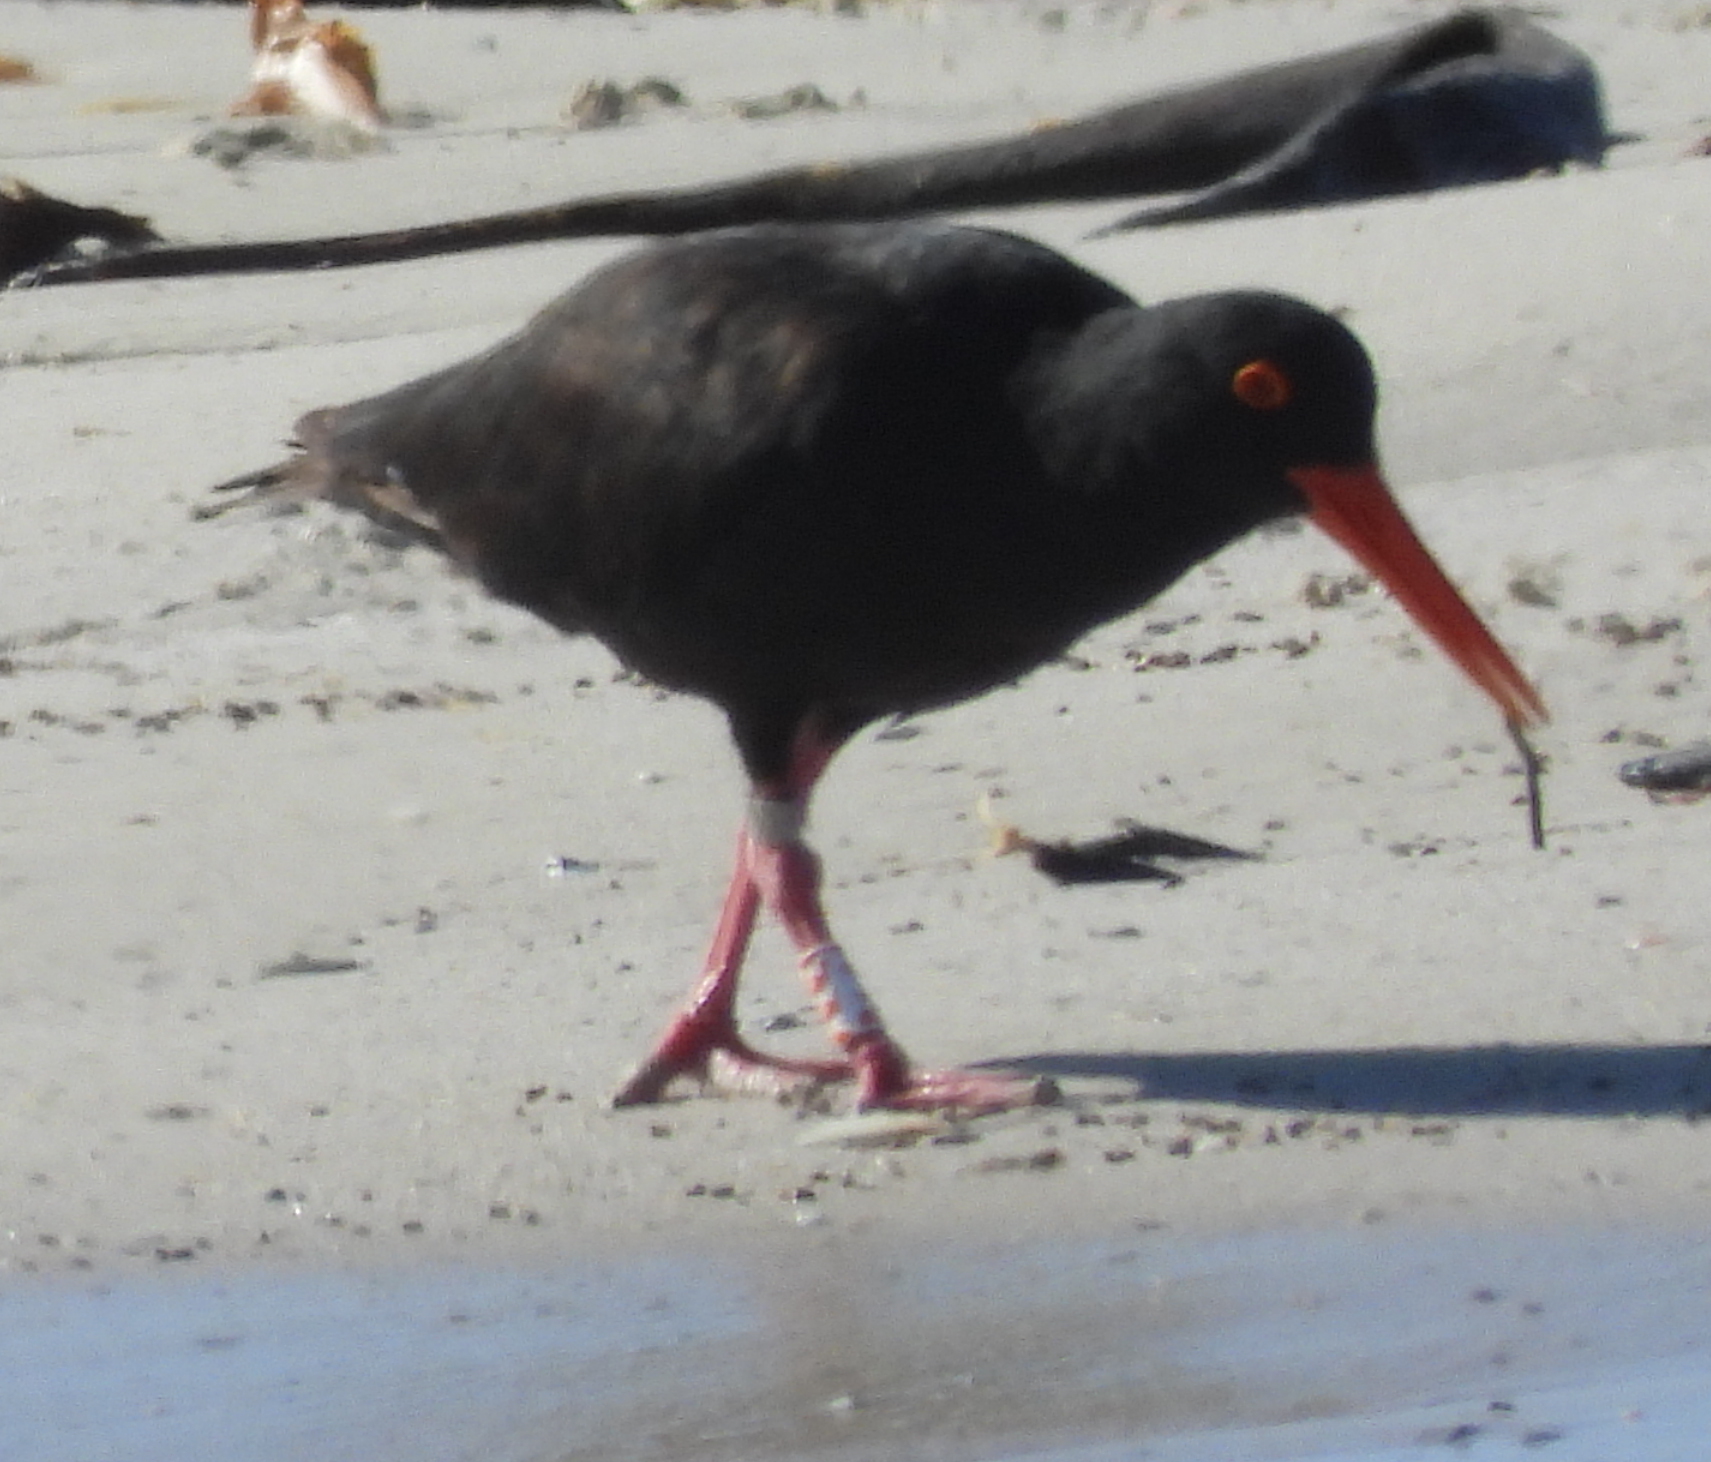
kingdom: Animalia
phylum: Chordata
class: Aves
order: Charadriiformes
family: Haematopodidae
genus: Haematopus
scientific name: Haematopus moquini
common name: African oystercatcher
